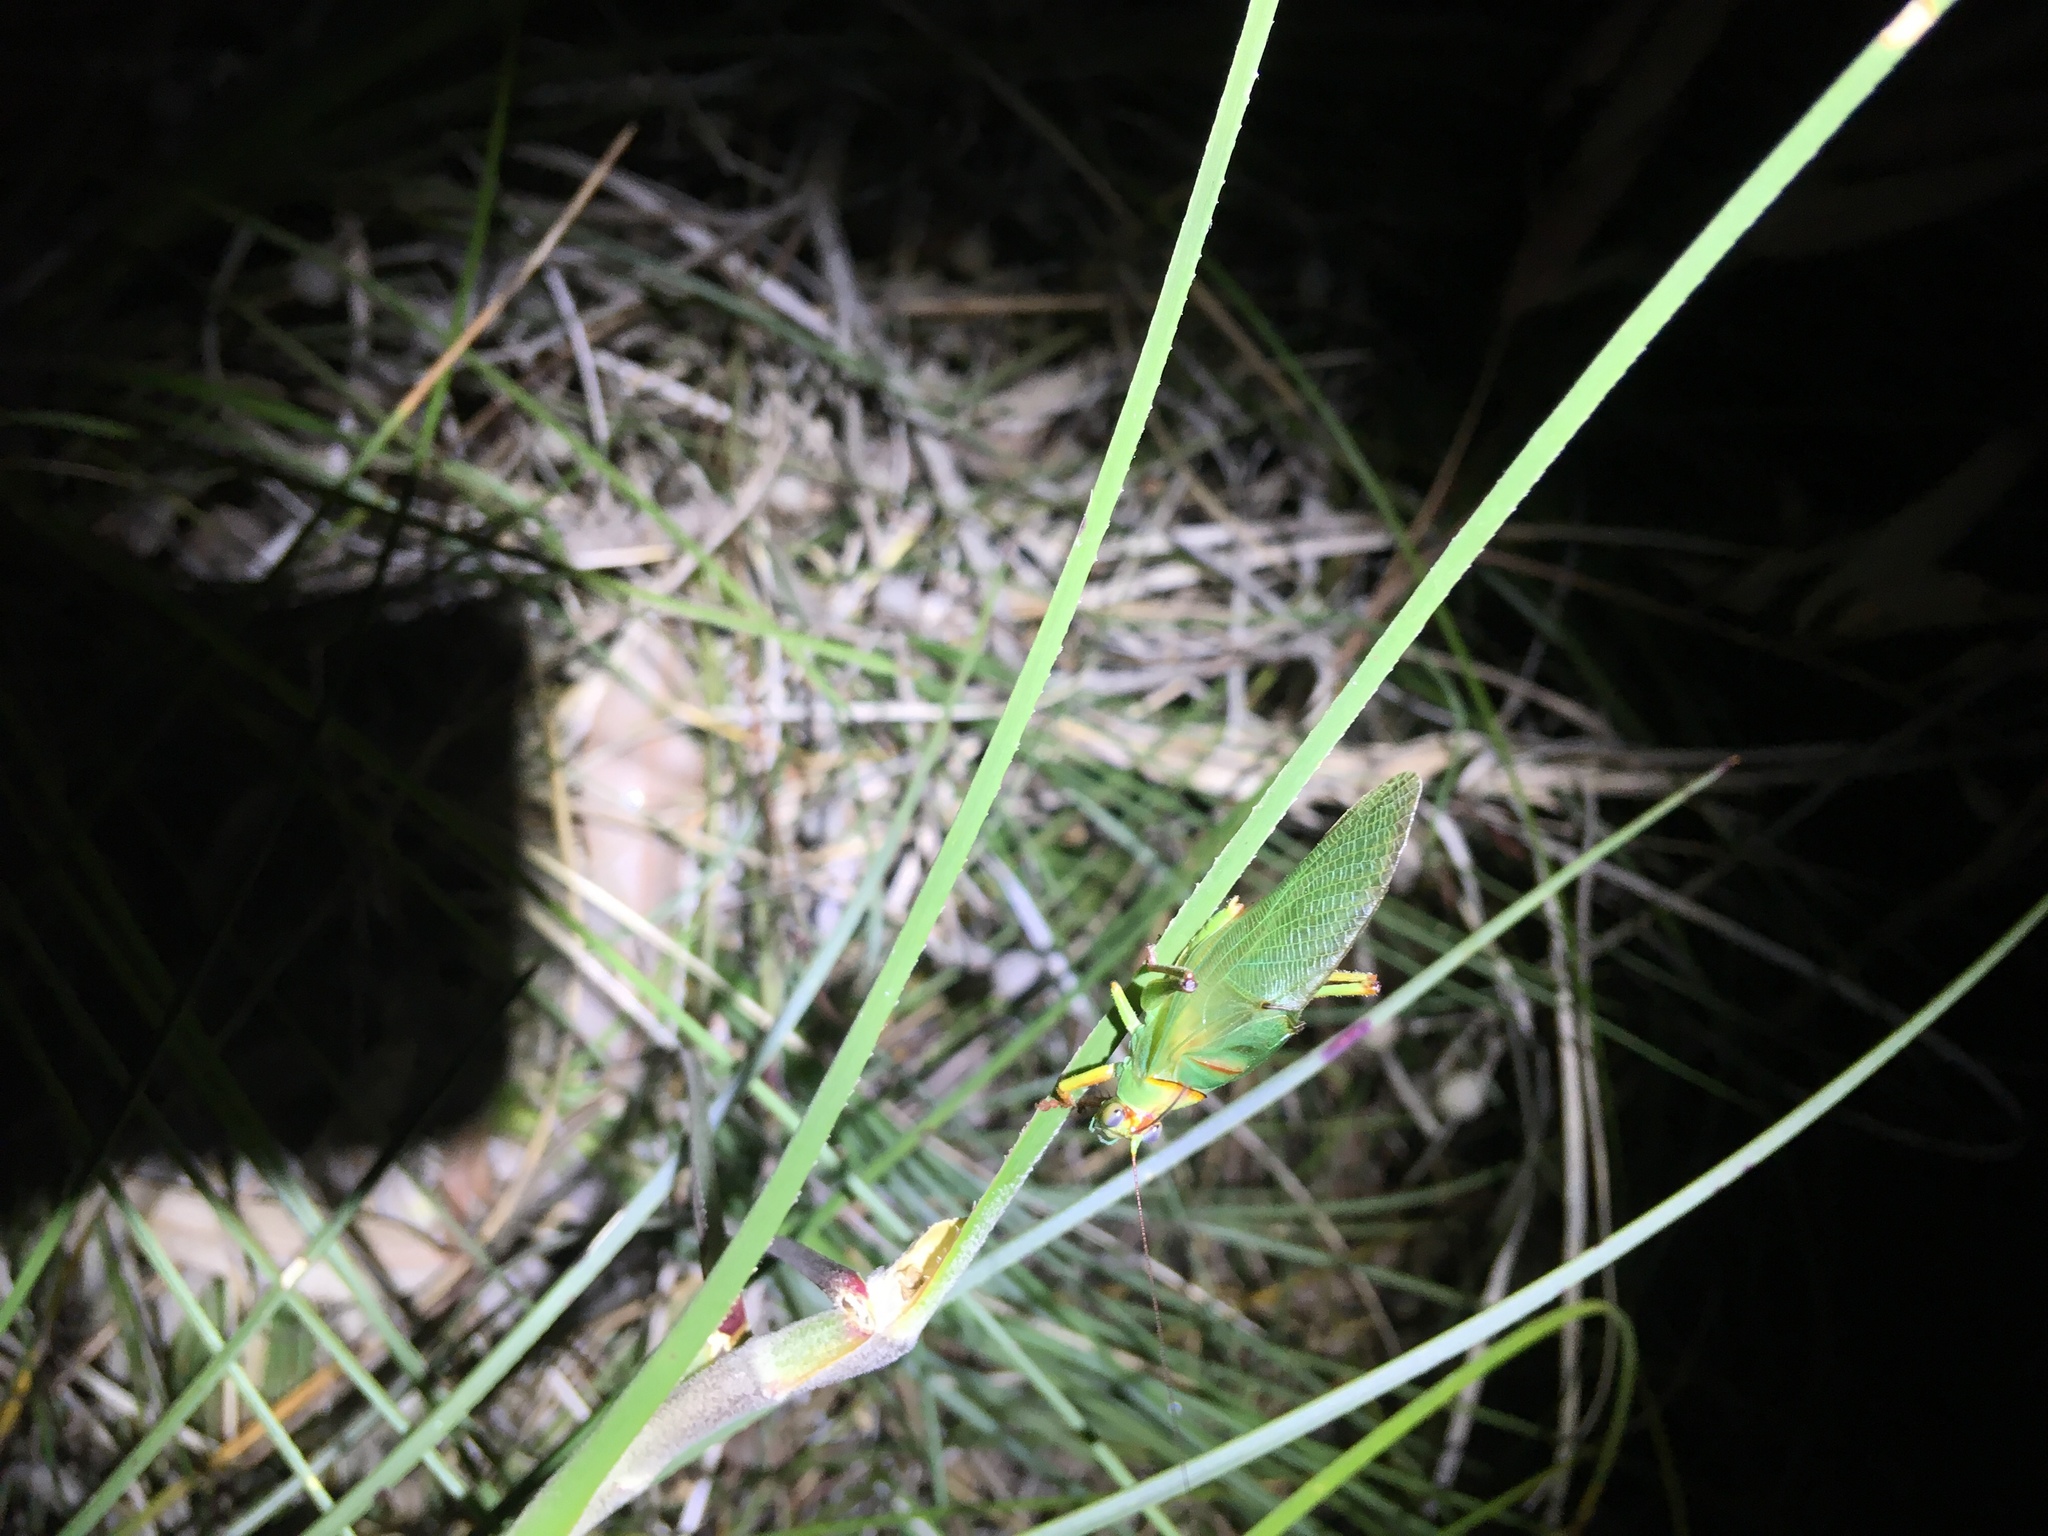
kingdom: Animalia
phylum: Arthropoda
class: Insecta
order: Orthoptera
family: Tettigoniidae
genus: Tympanophora
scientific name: Tympanophora andreae
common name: Andrea's balloon-winged katydid
